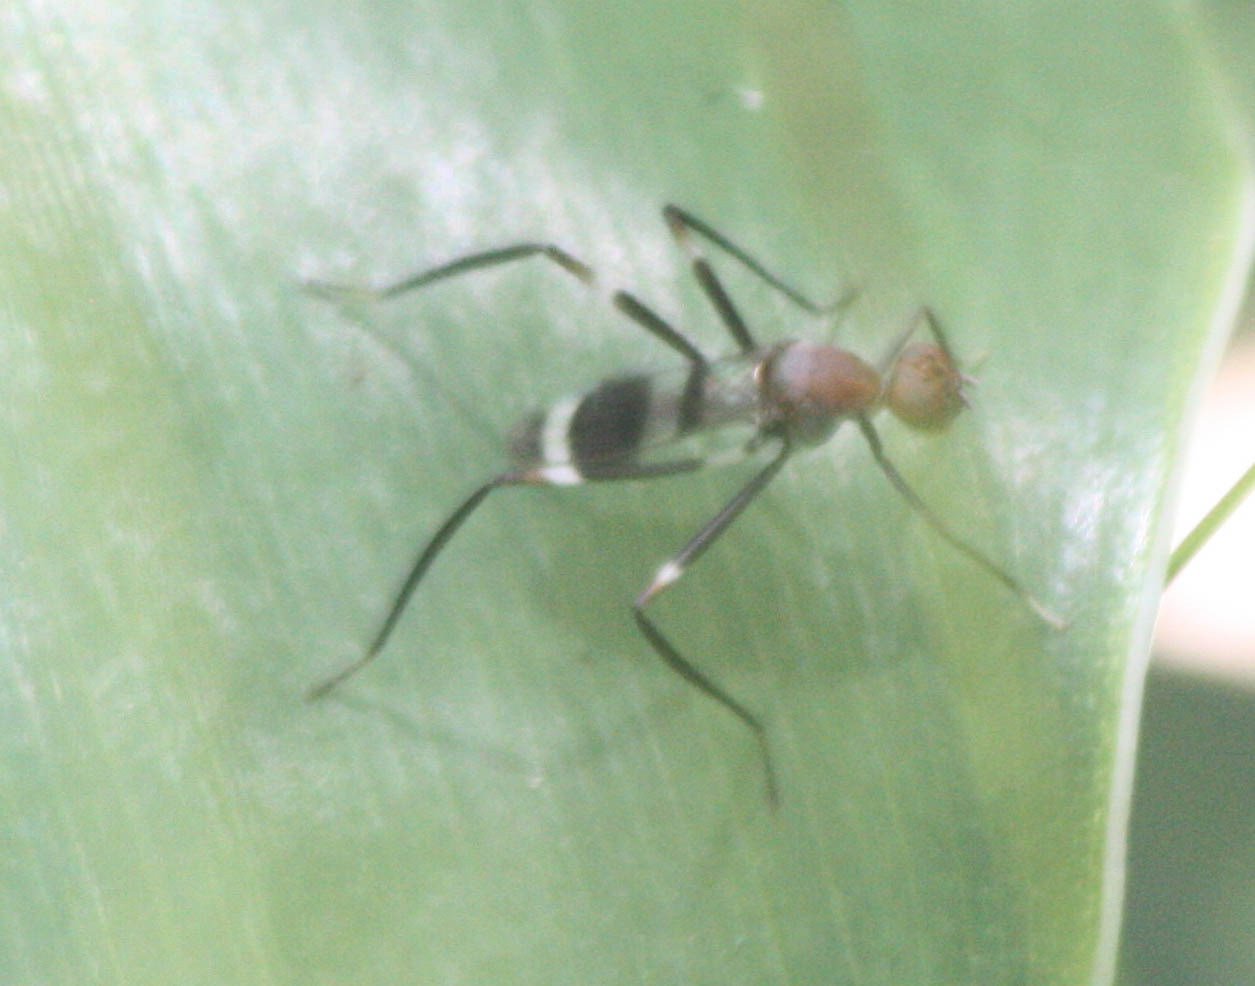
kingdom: Animalia
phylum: Arthropoda
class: Insecta
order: Diptera
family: Micropezidae
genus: Paragrallomyia
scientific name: Paragrallomyia
